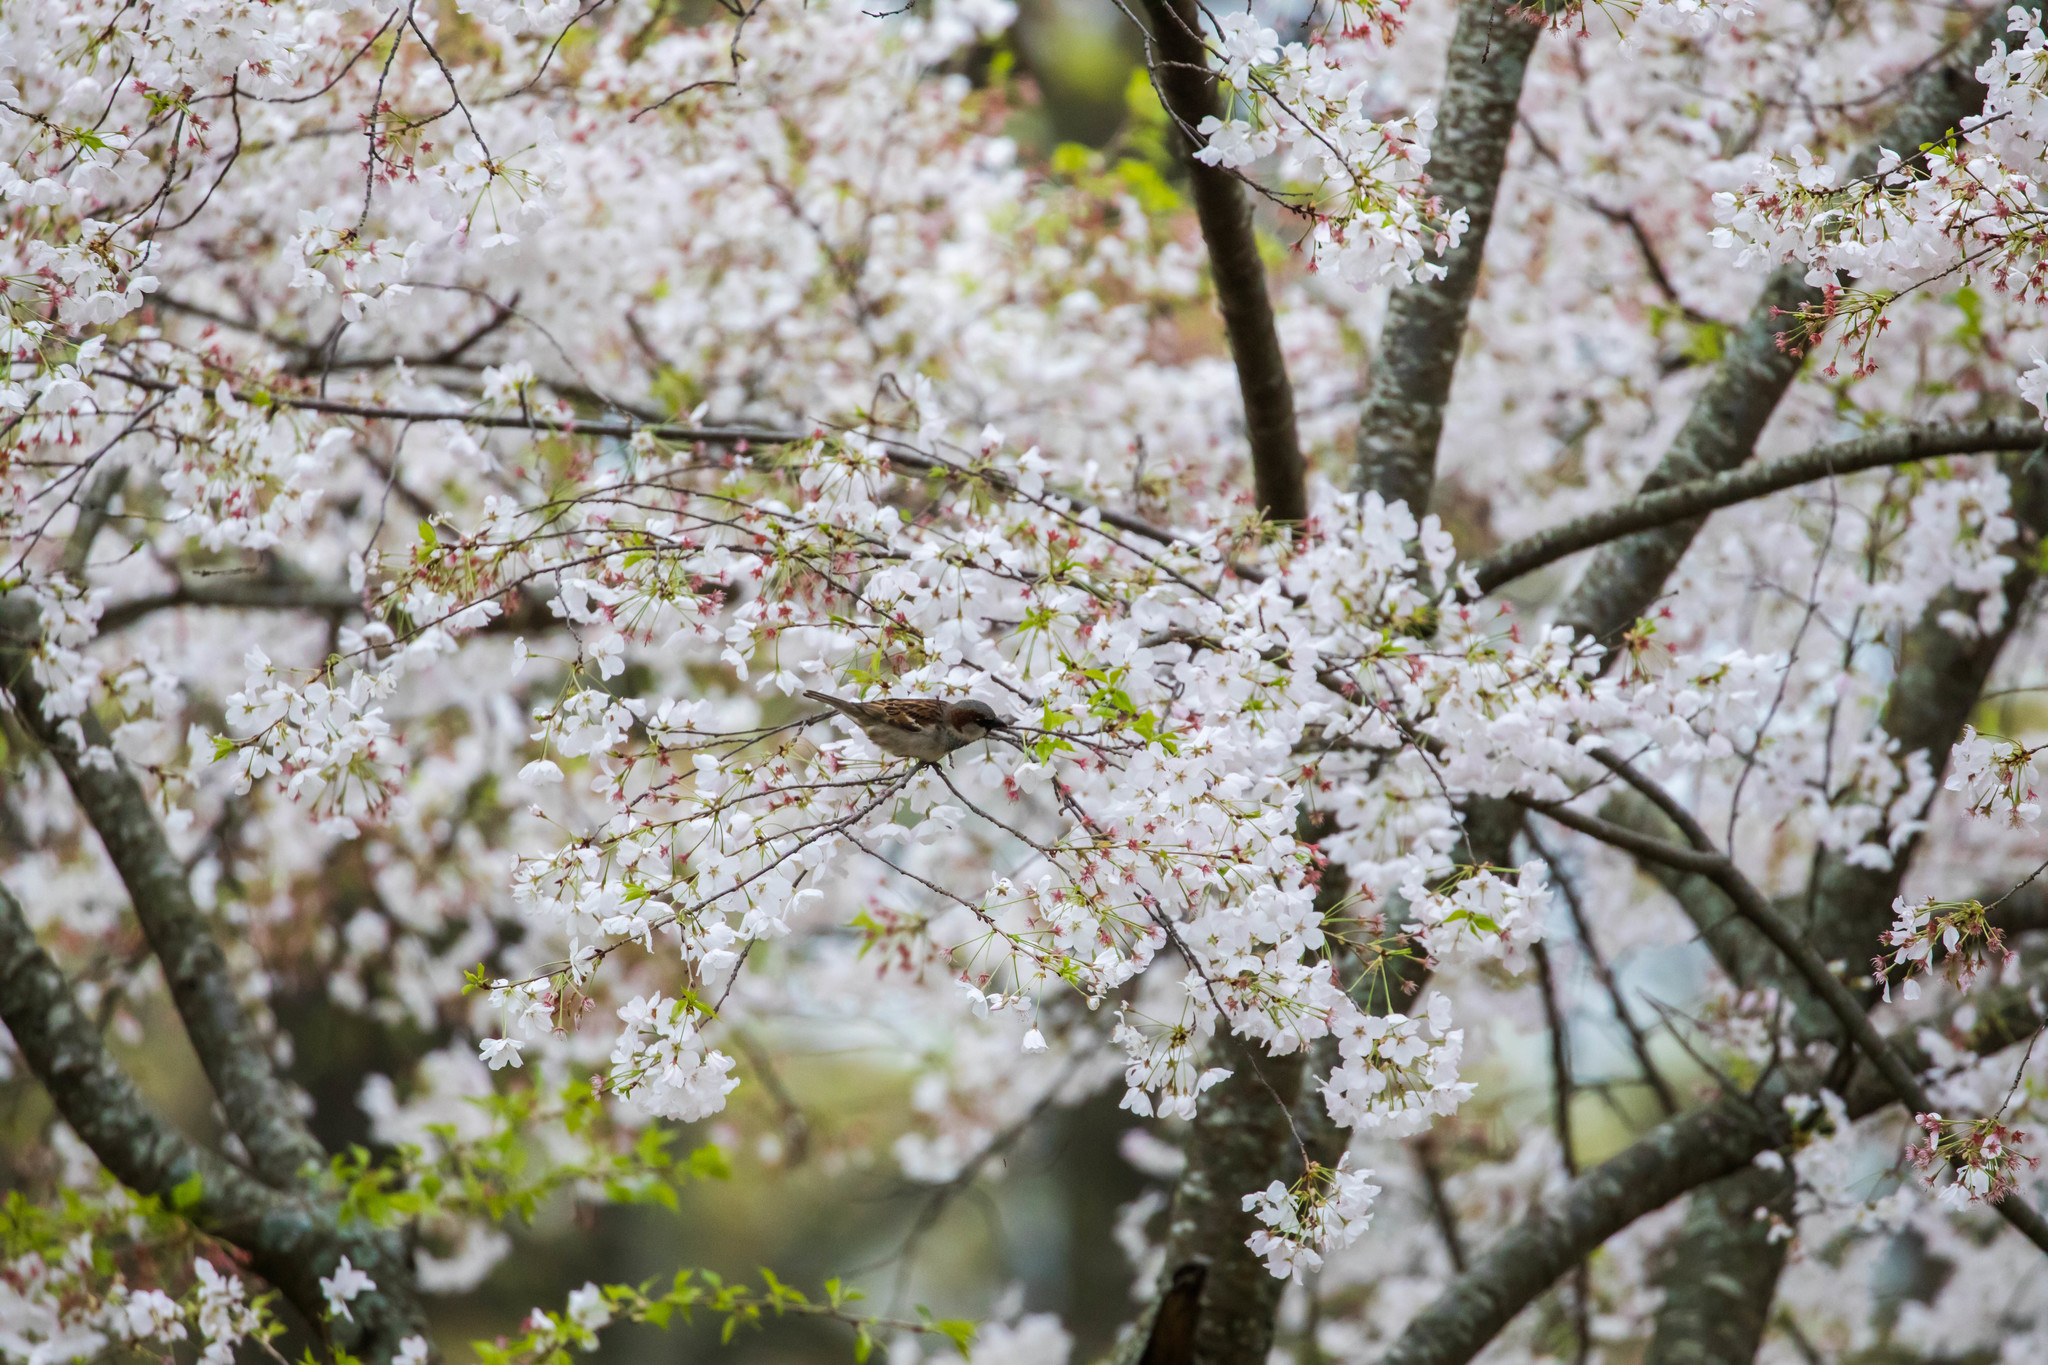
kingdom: Animalia
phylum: Chordata
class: Aves
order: Passeriformes
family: Passeridae
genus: Passer
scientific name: Passer domesticus
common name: House sparrow
